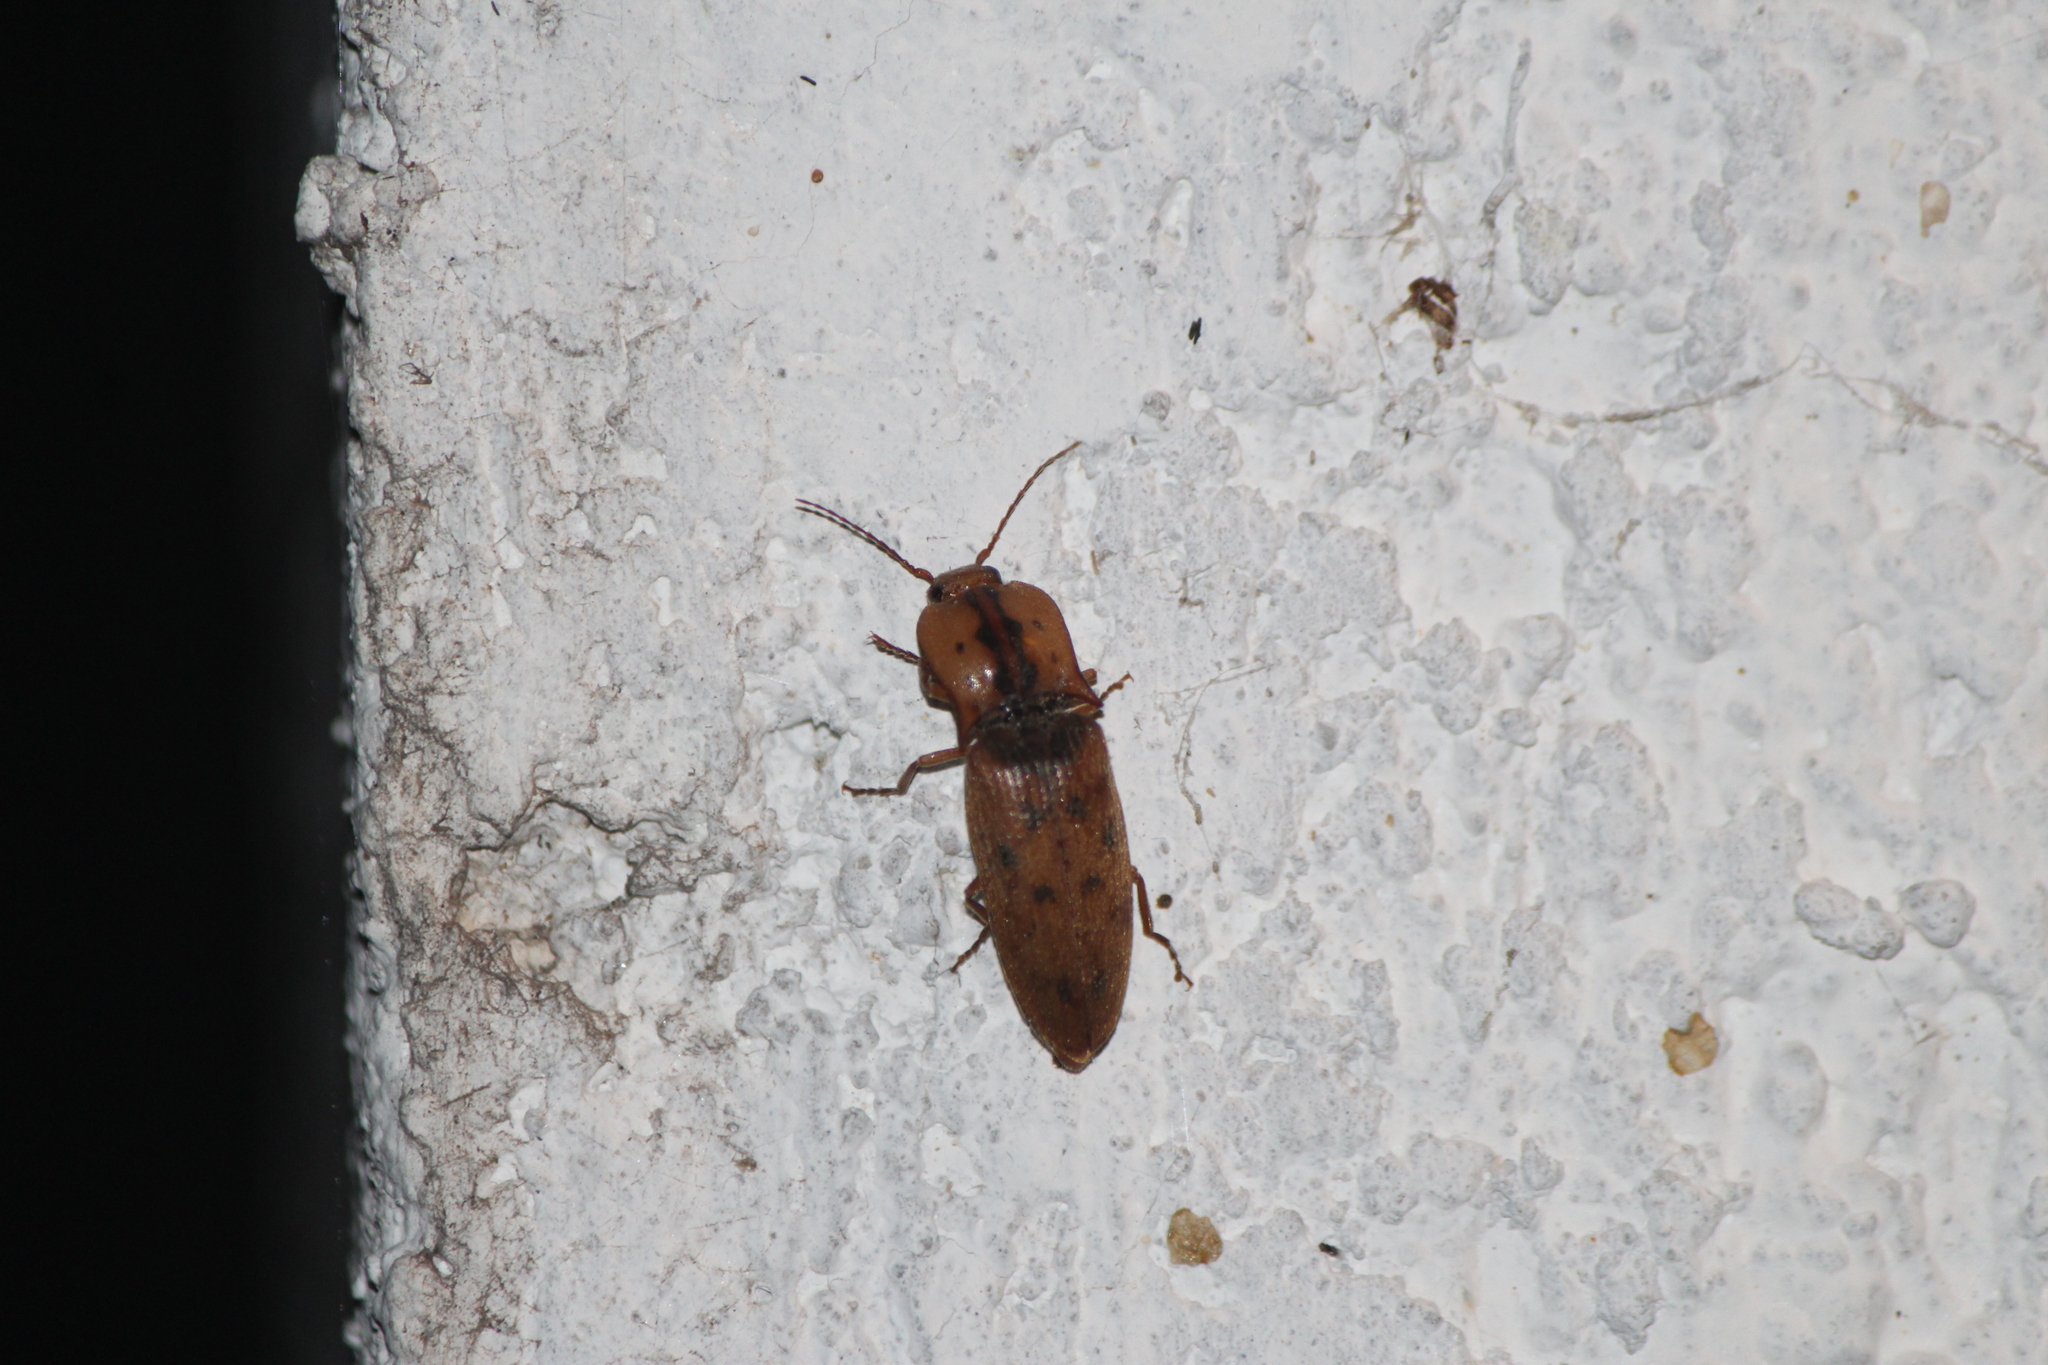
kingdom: Animalia
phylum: Arthropoda
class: Insecta
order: Coleoptera
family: Elateridae
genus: Monocrepidius
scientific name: Monocrepidius nocturnus
